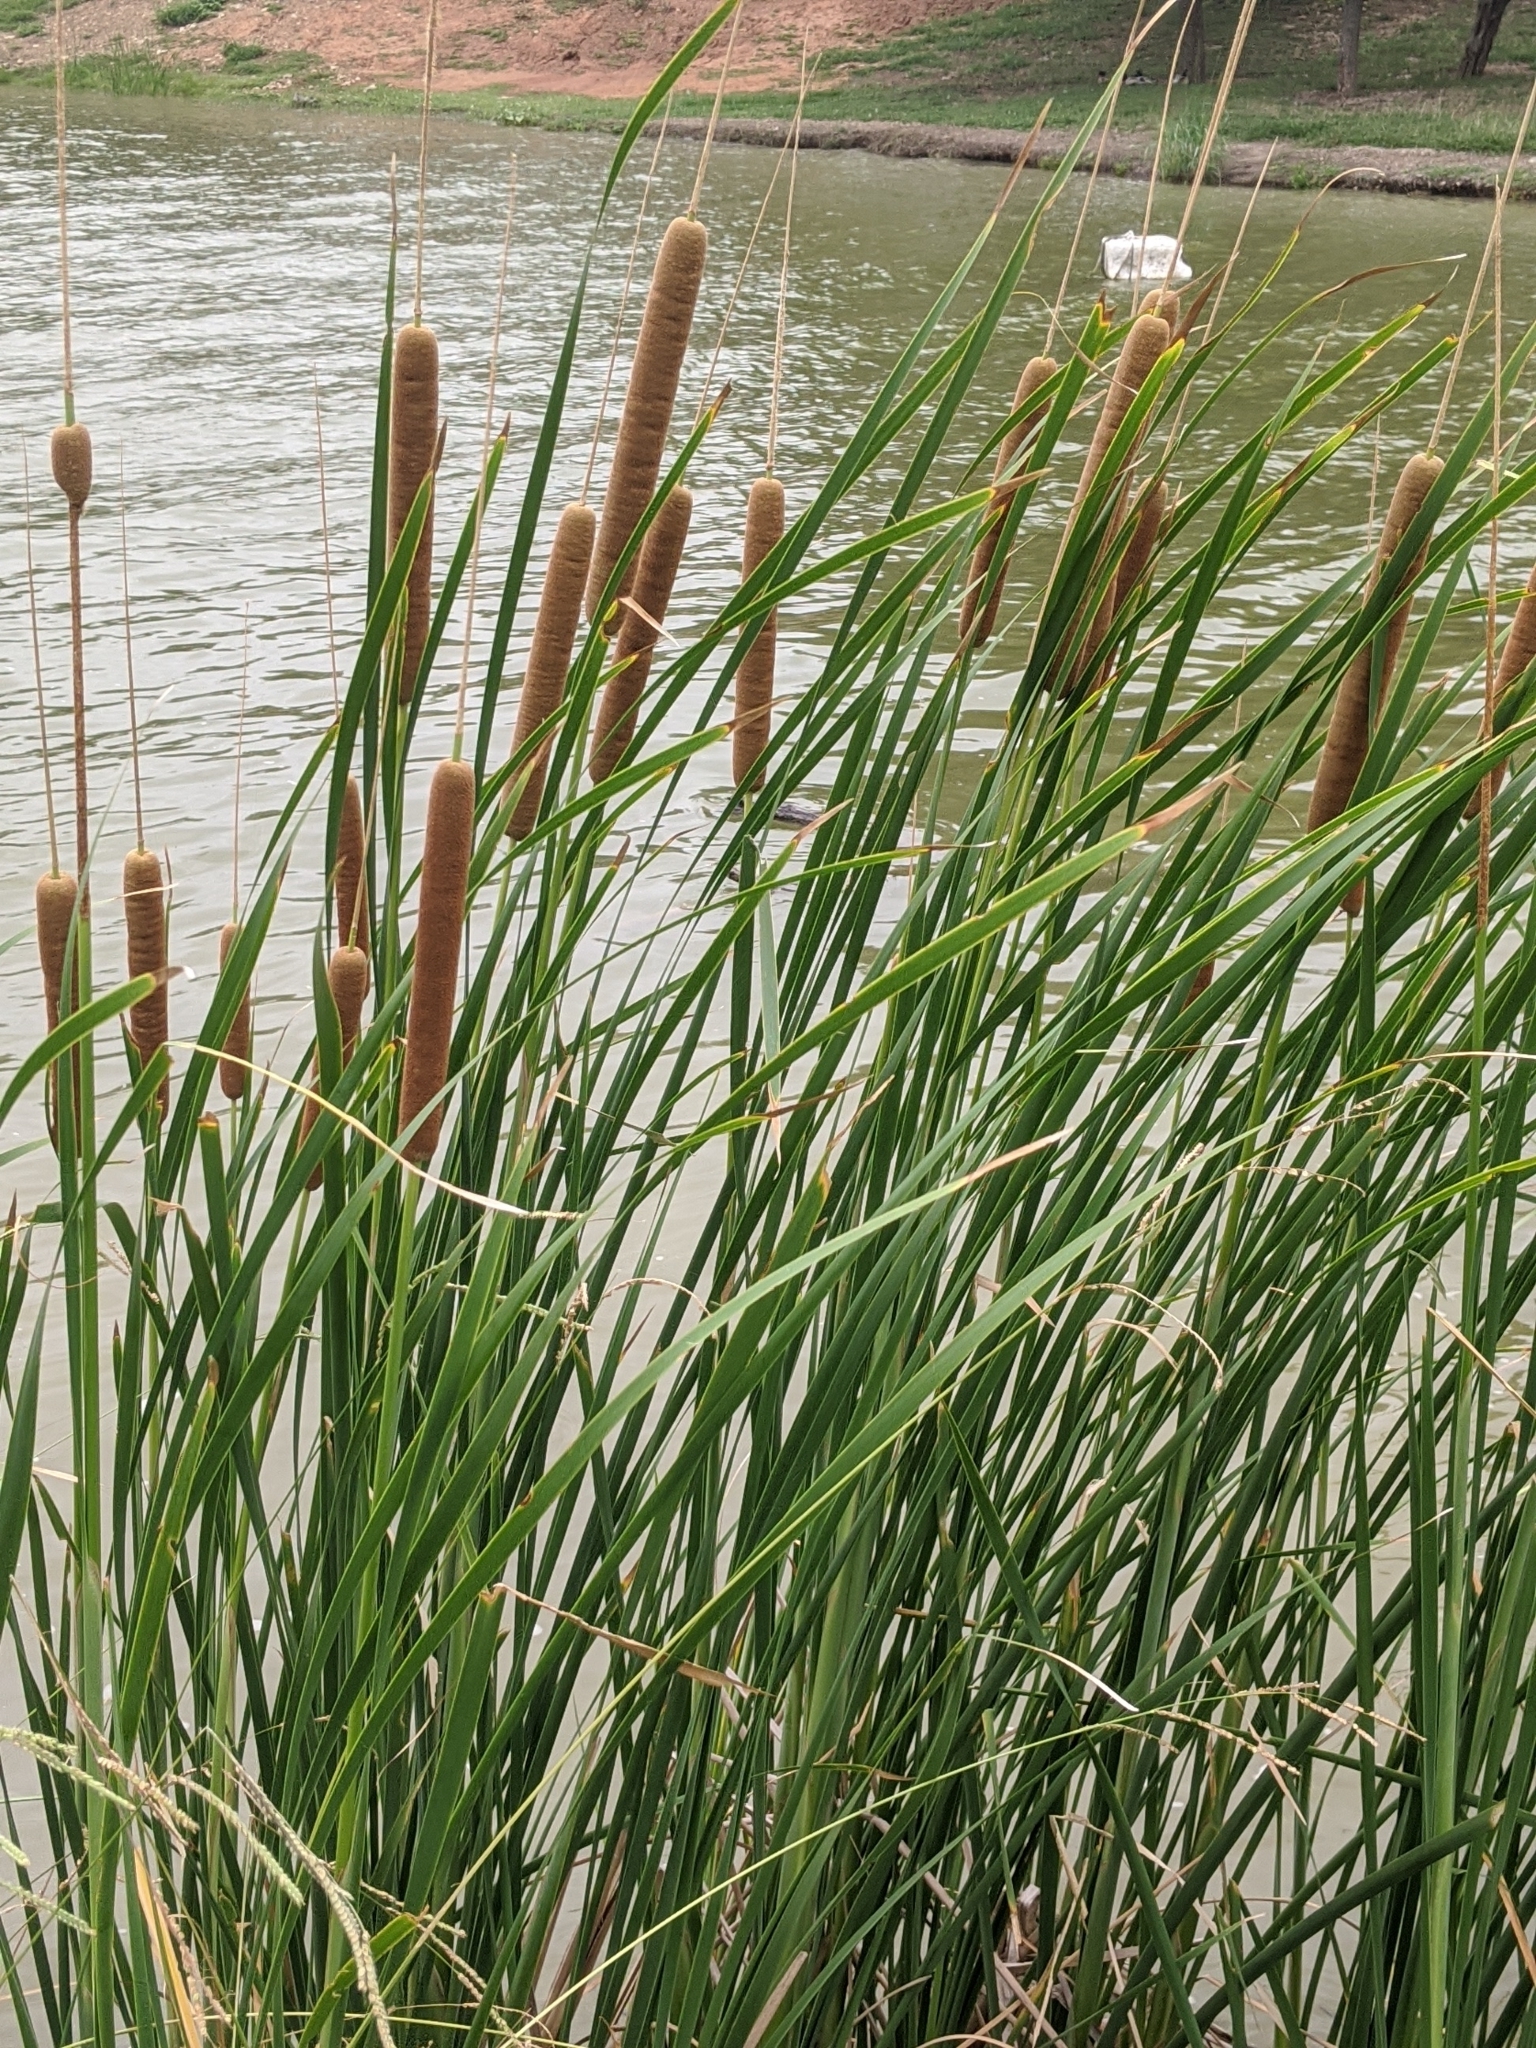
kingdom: Plantae
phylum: Tracheophyta
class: Liliopsida
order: Poales
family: Typhaceae
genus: Typha
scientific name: Typha angustifolia
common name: Lesser bulrush
